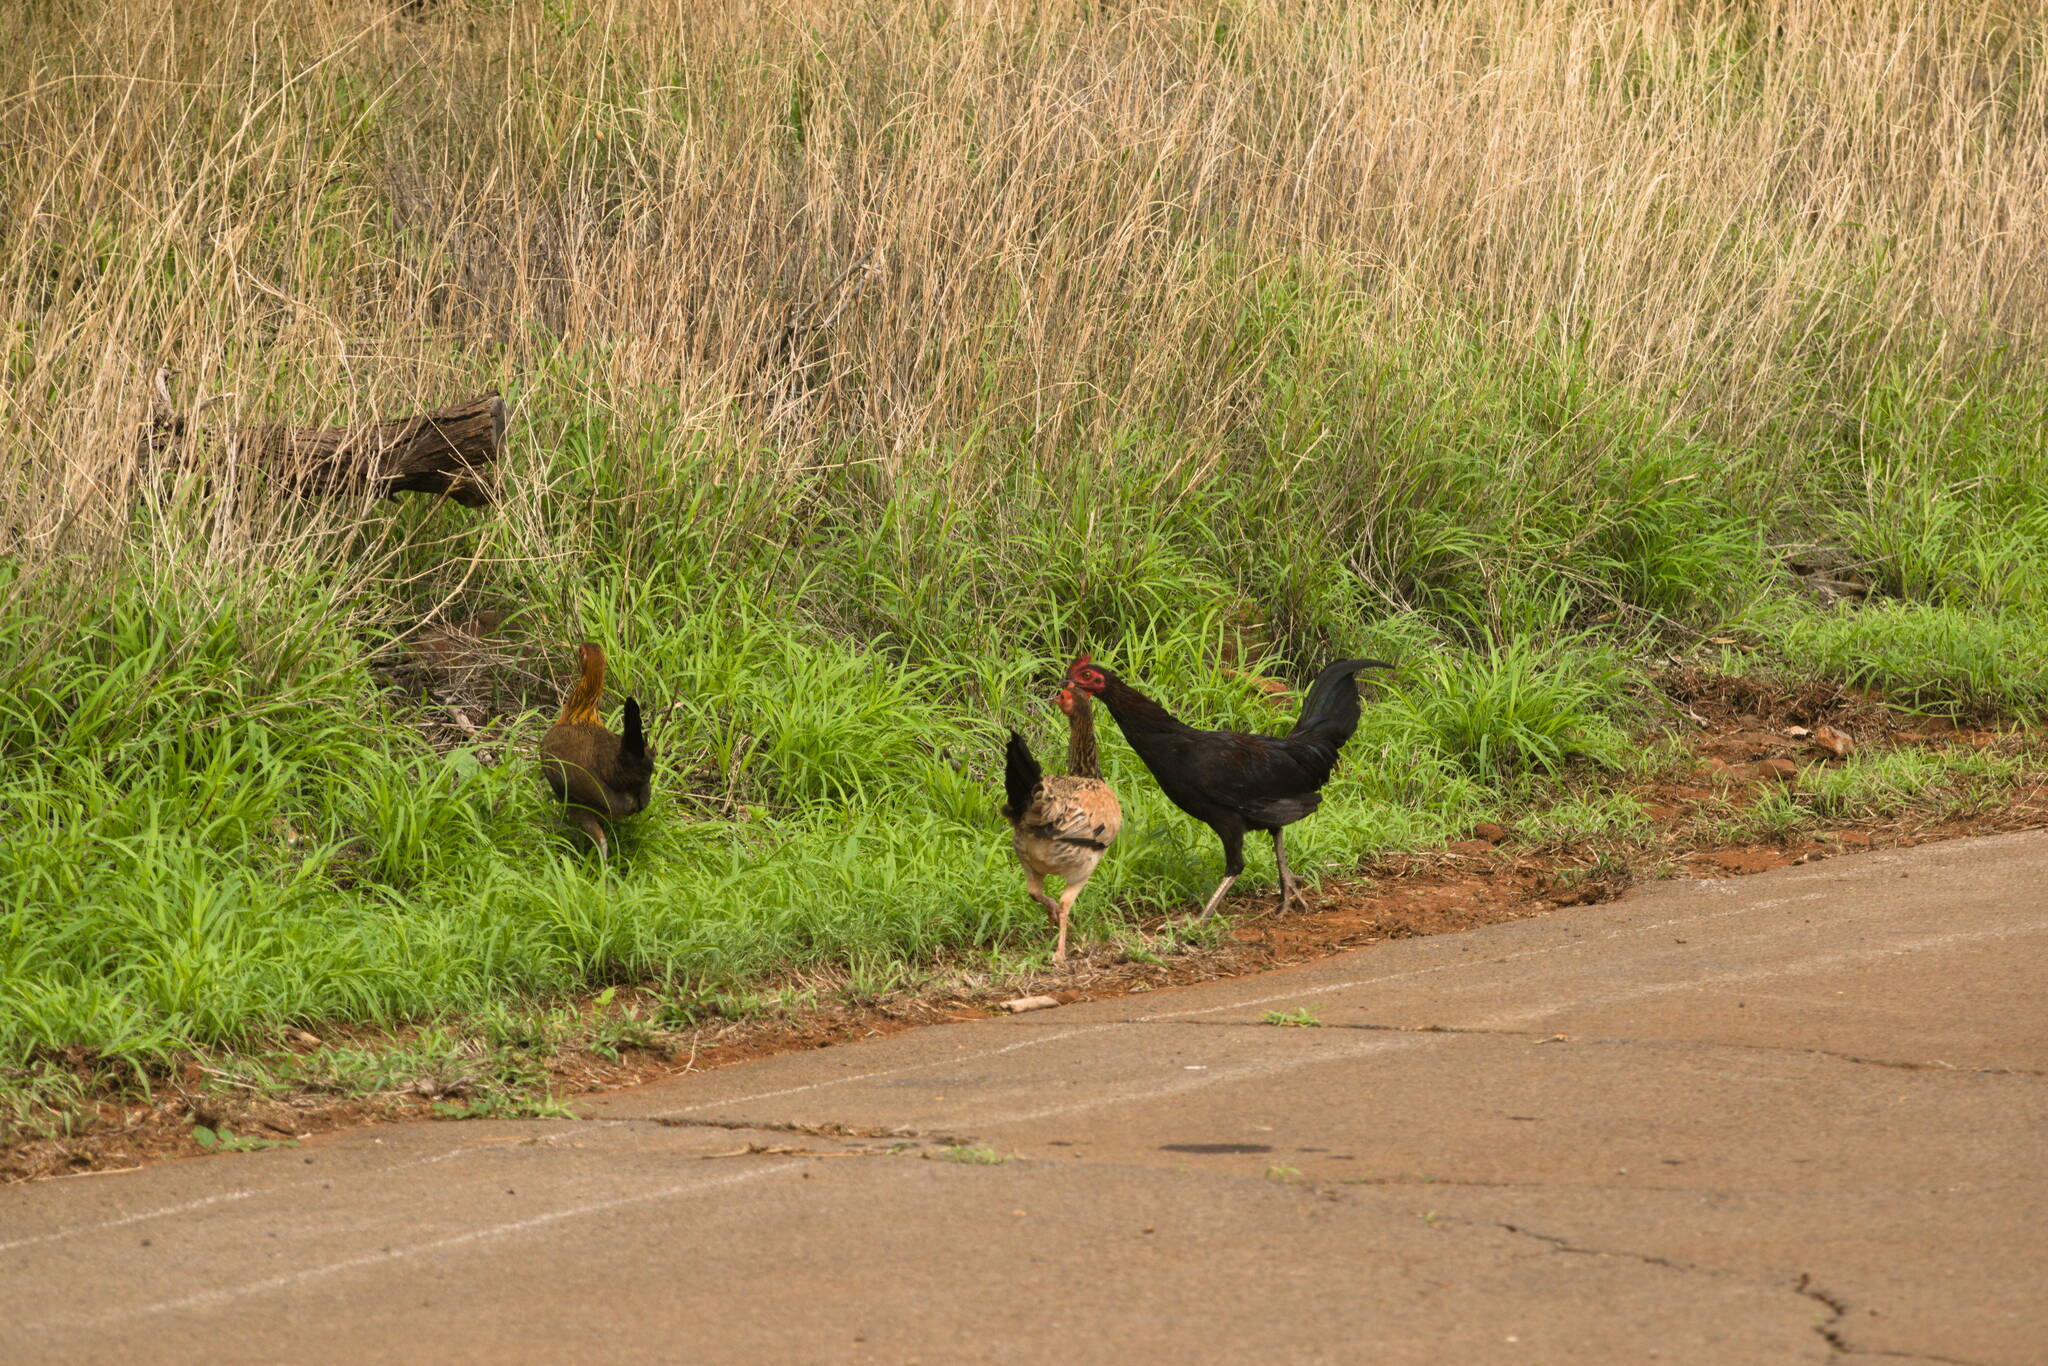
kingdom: Animalia
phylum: Chordata
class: Aves
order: Galliformes
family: Phasianidae
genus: Gallus
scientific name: Gallus gallus
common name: Red junglefowl
